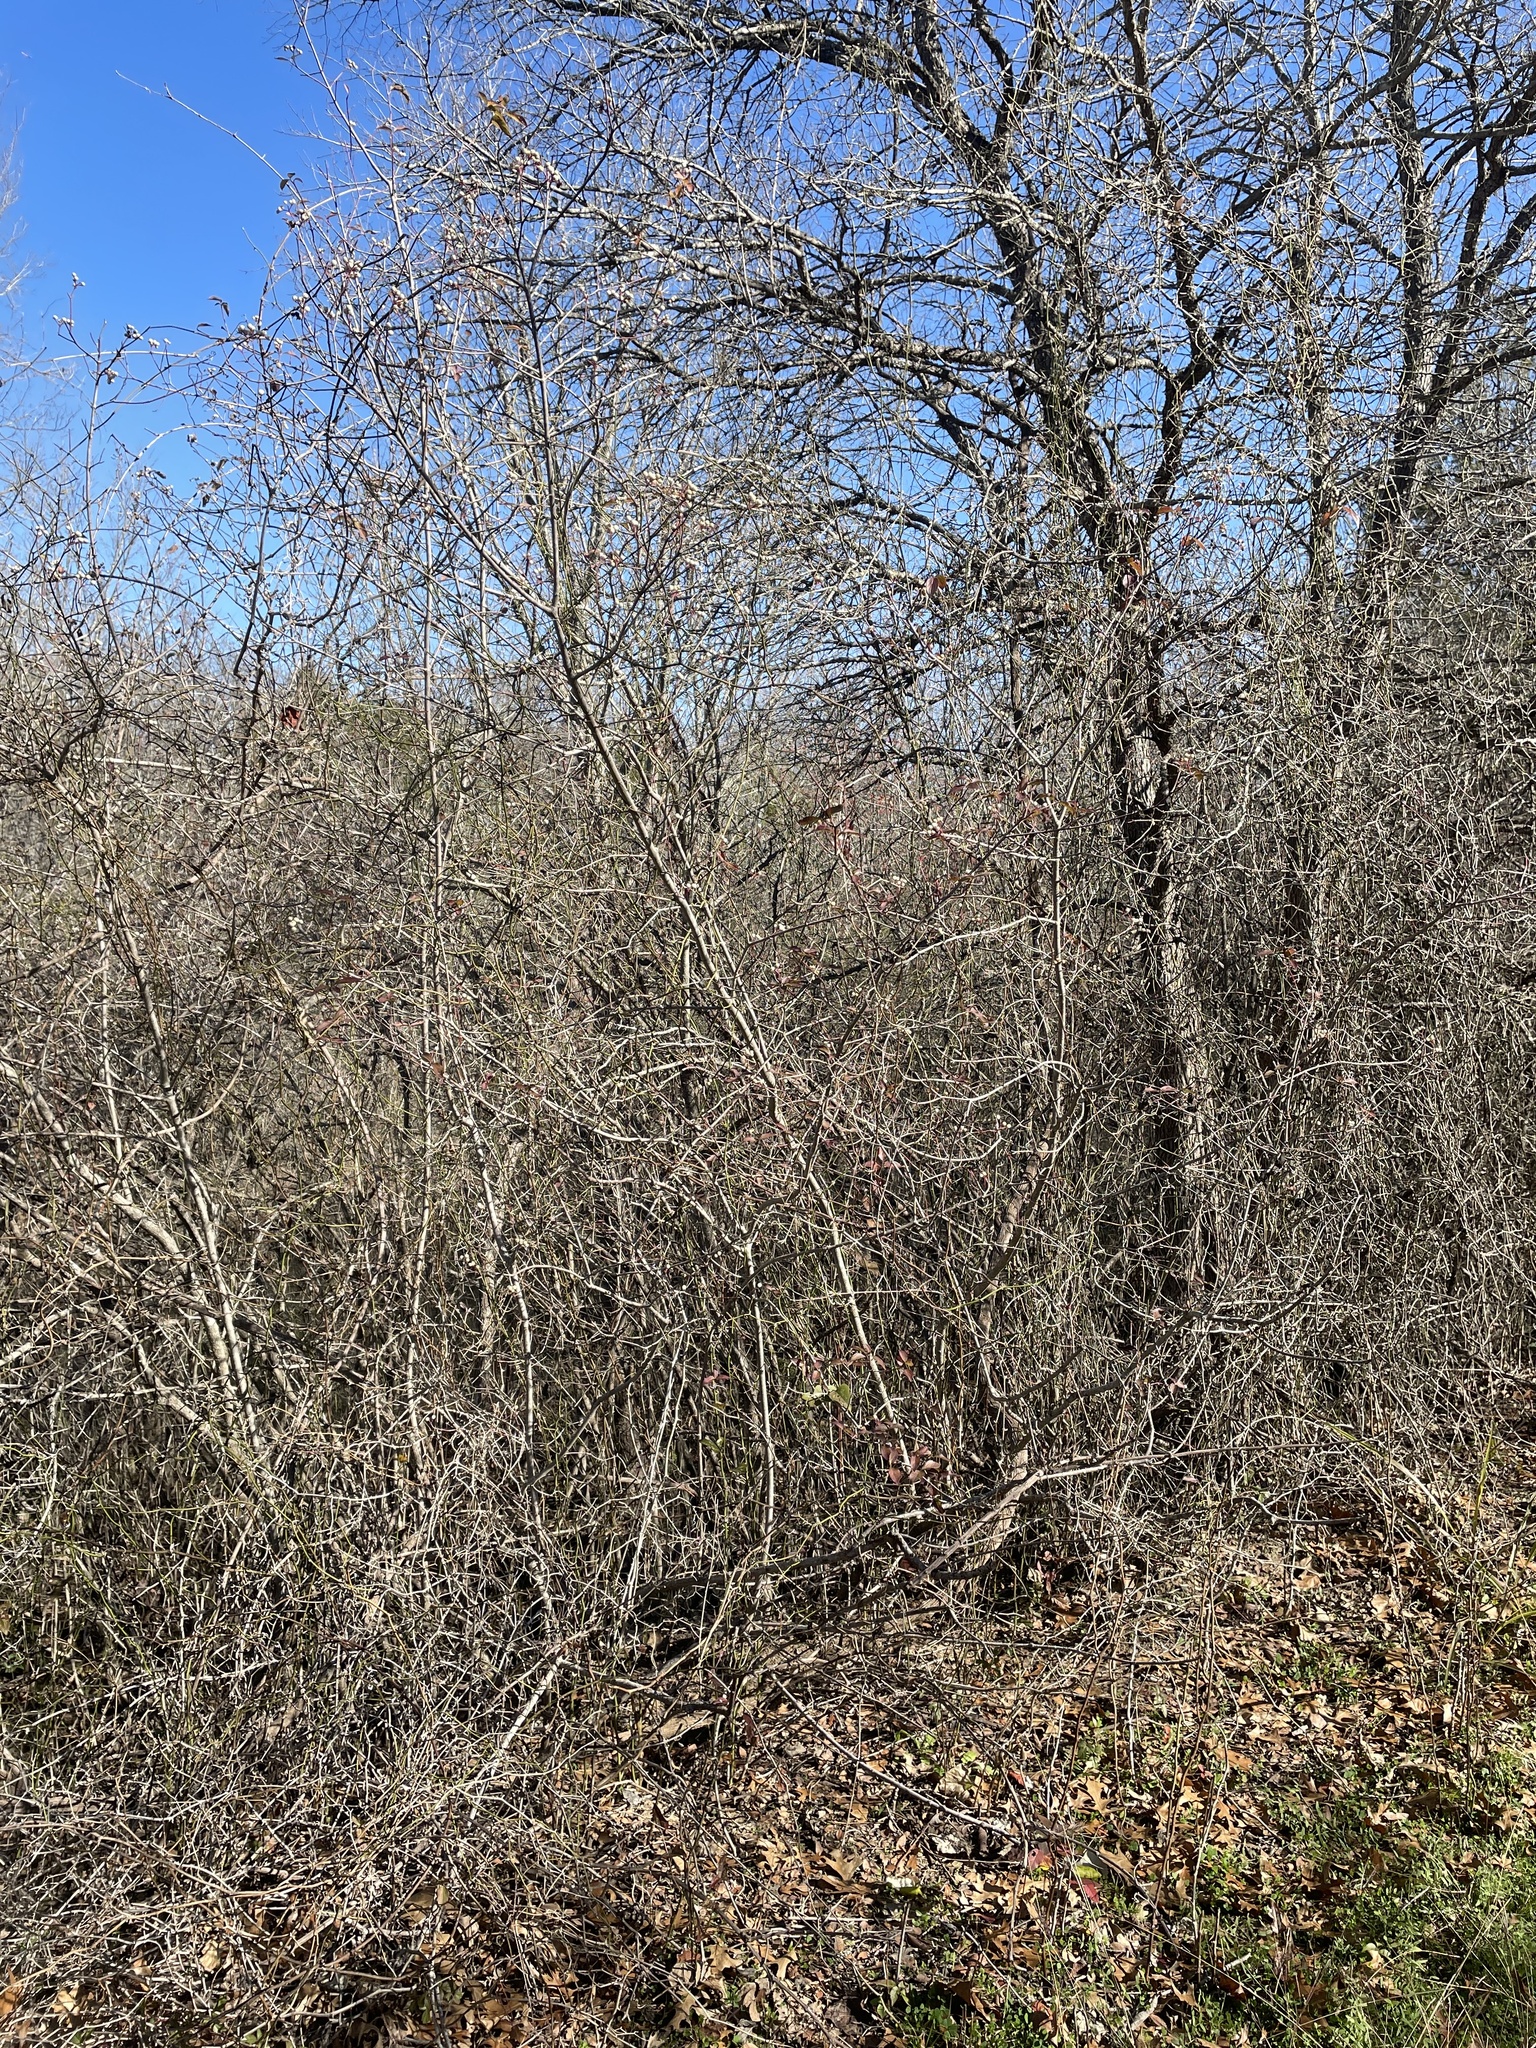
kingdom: Plantae
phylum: Tracheophyta
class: Magnoliopsida
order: Cornales
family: Cornaceae
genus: Cornus
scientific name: Cornus drummondii
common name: Rough-leaf dogwood
